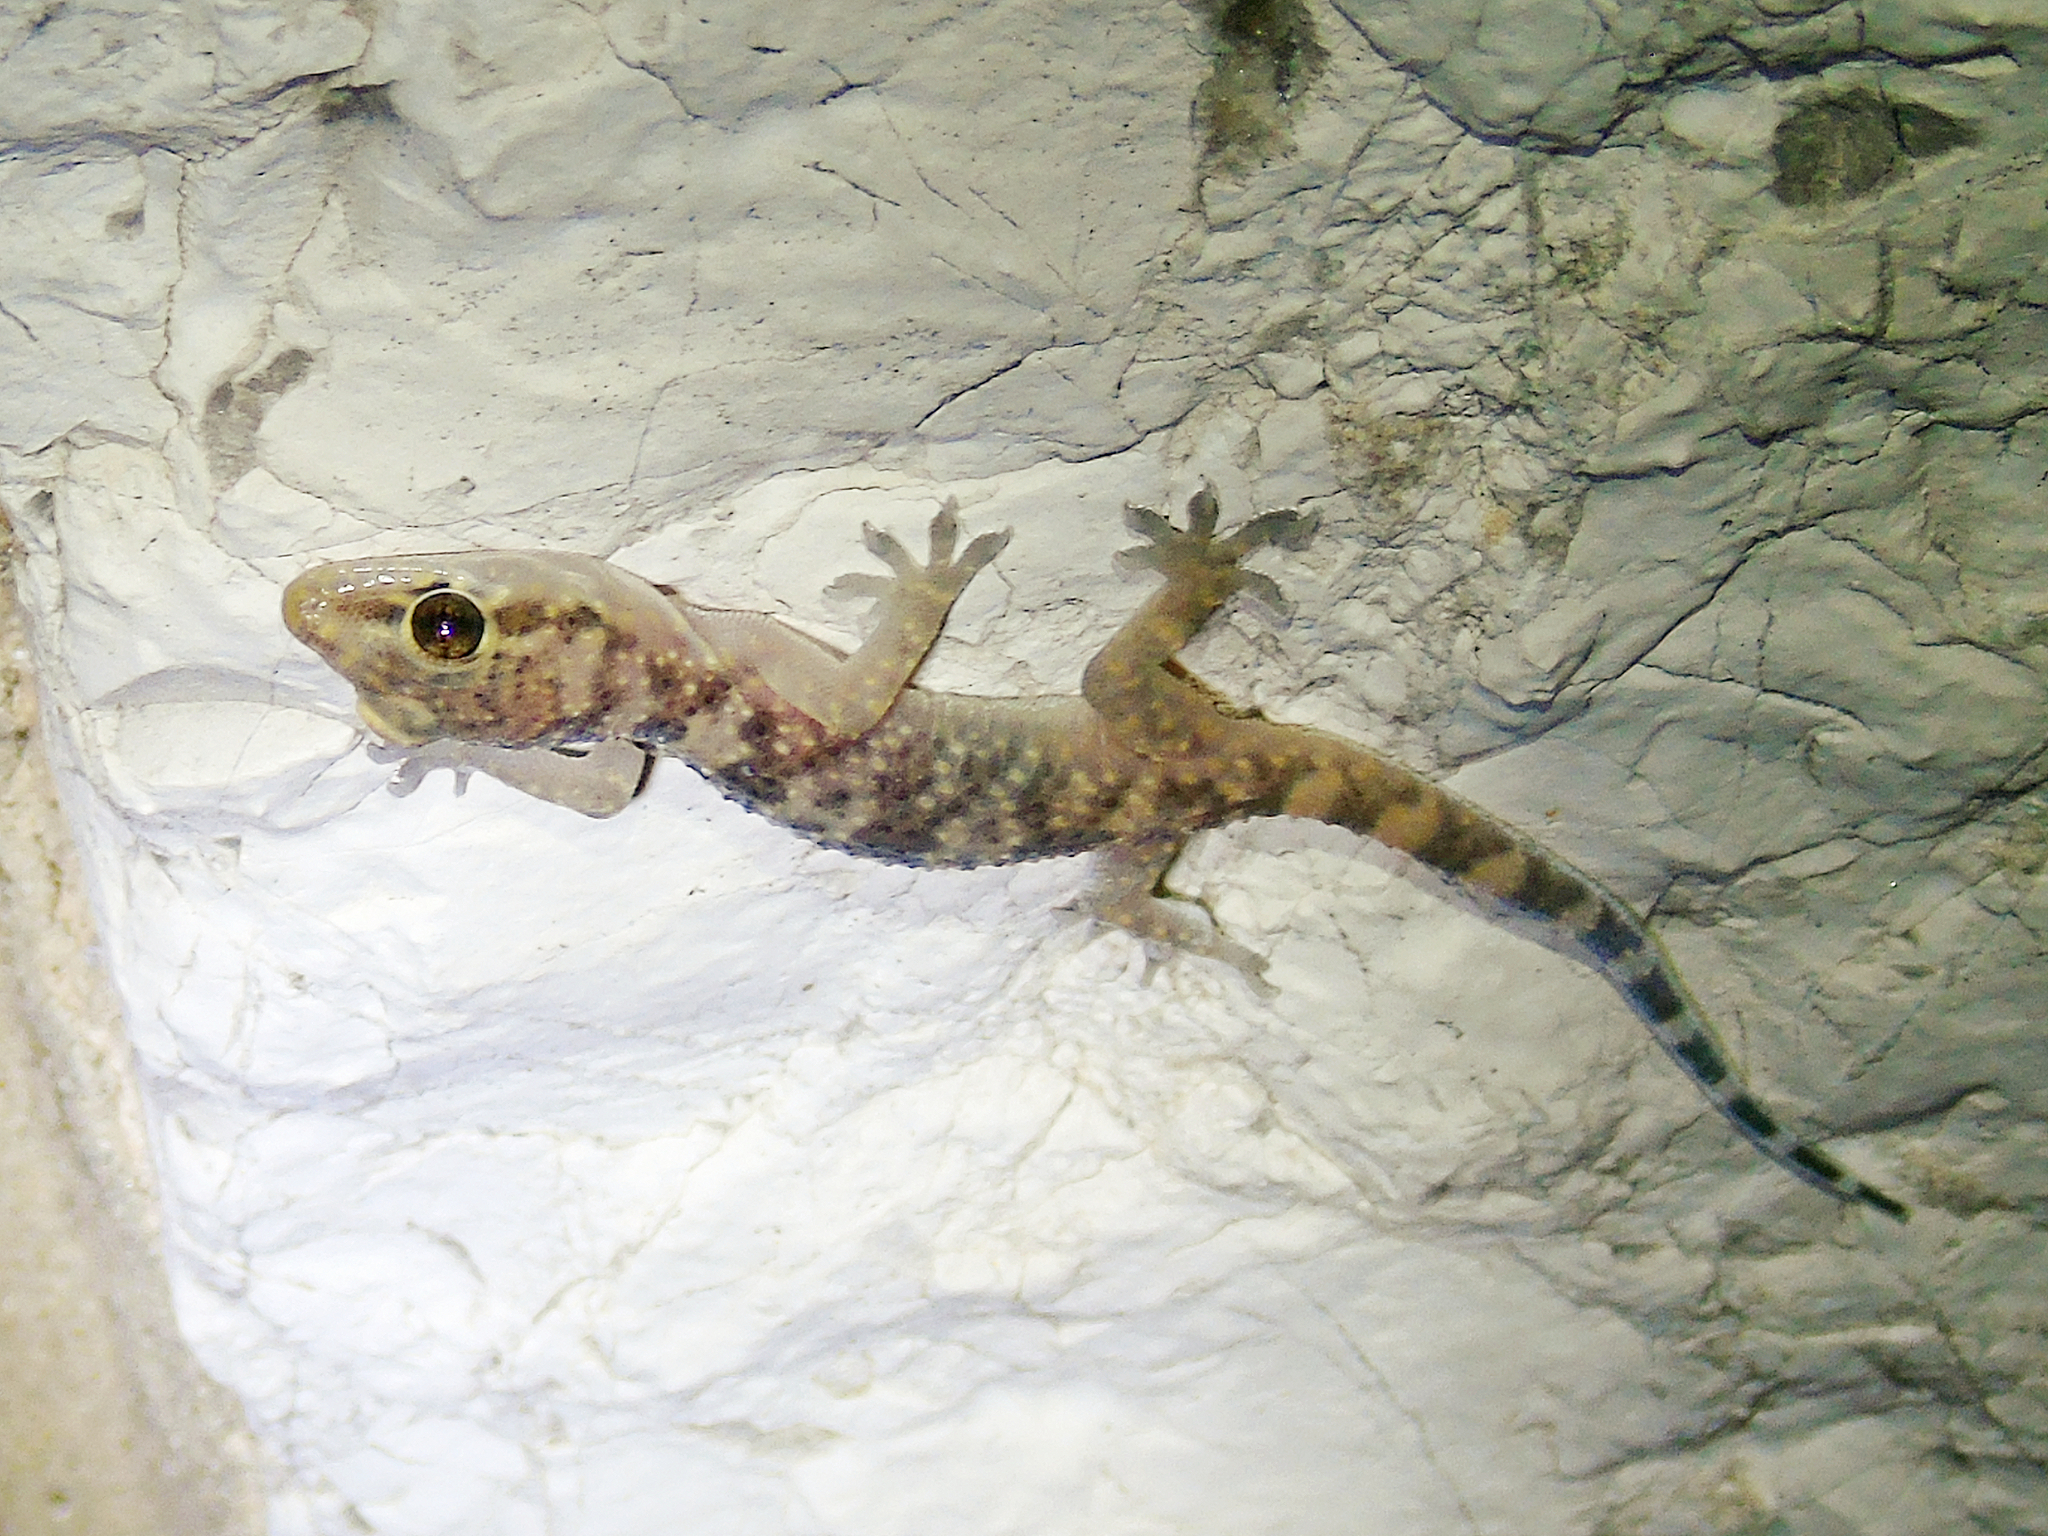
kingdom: Animalia
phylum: Chordata
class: Squamata
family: Gekkonidae
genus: Hemidactylus
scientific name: Hemidactylus turcicus
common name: Turkish gecko
